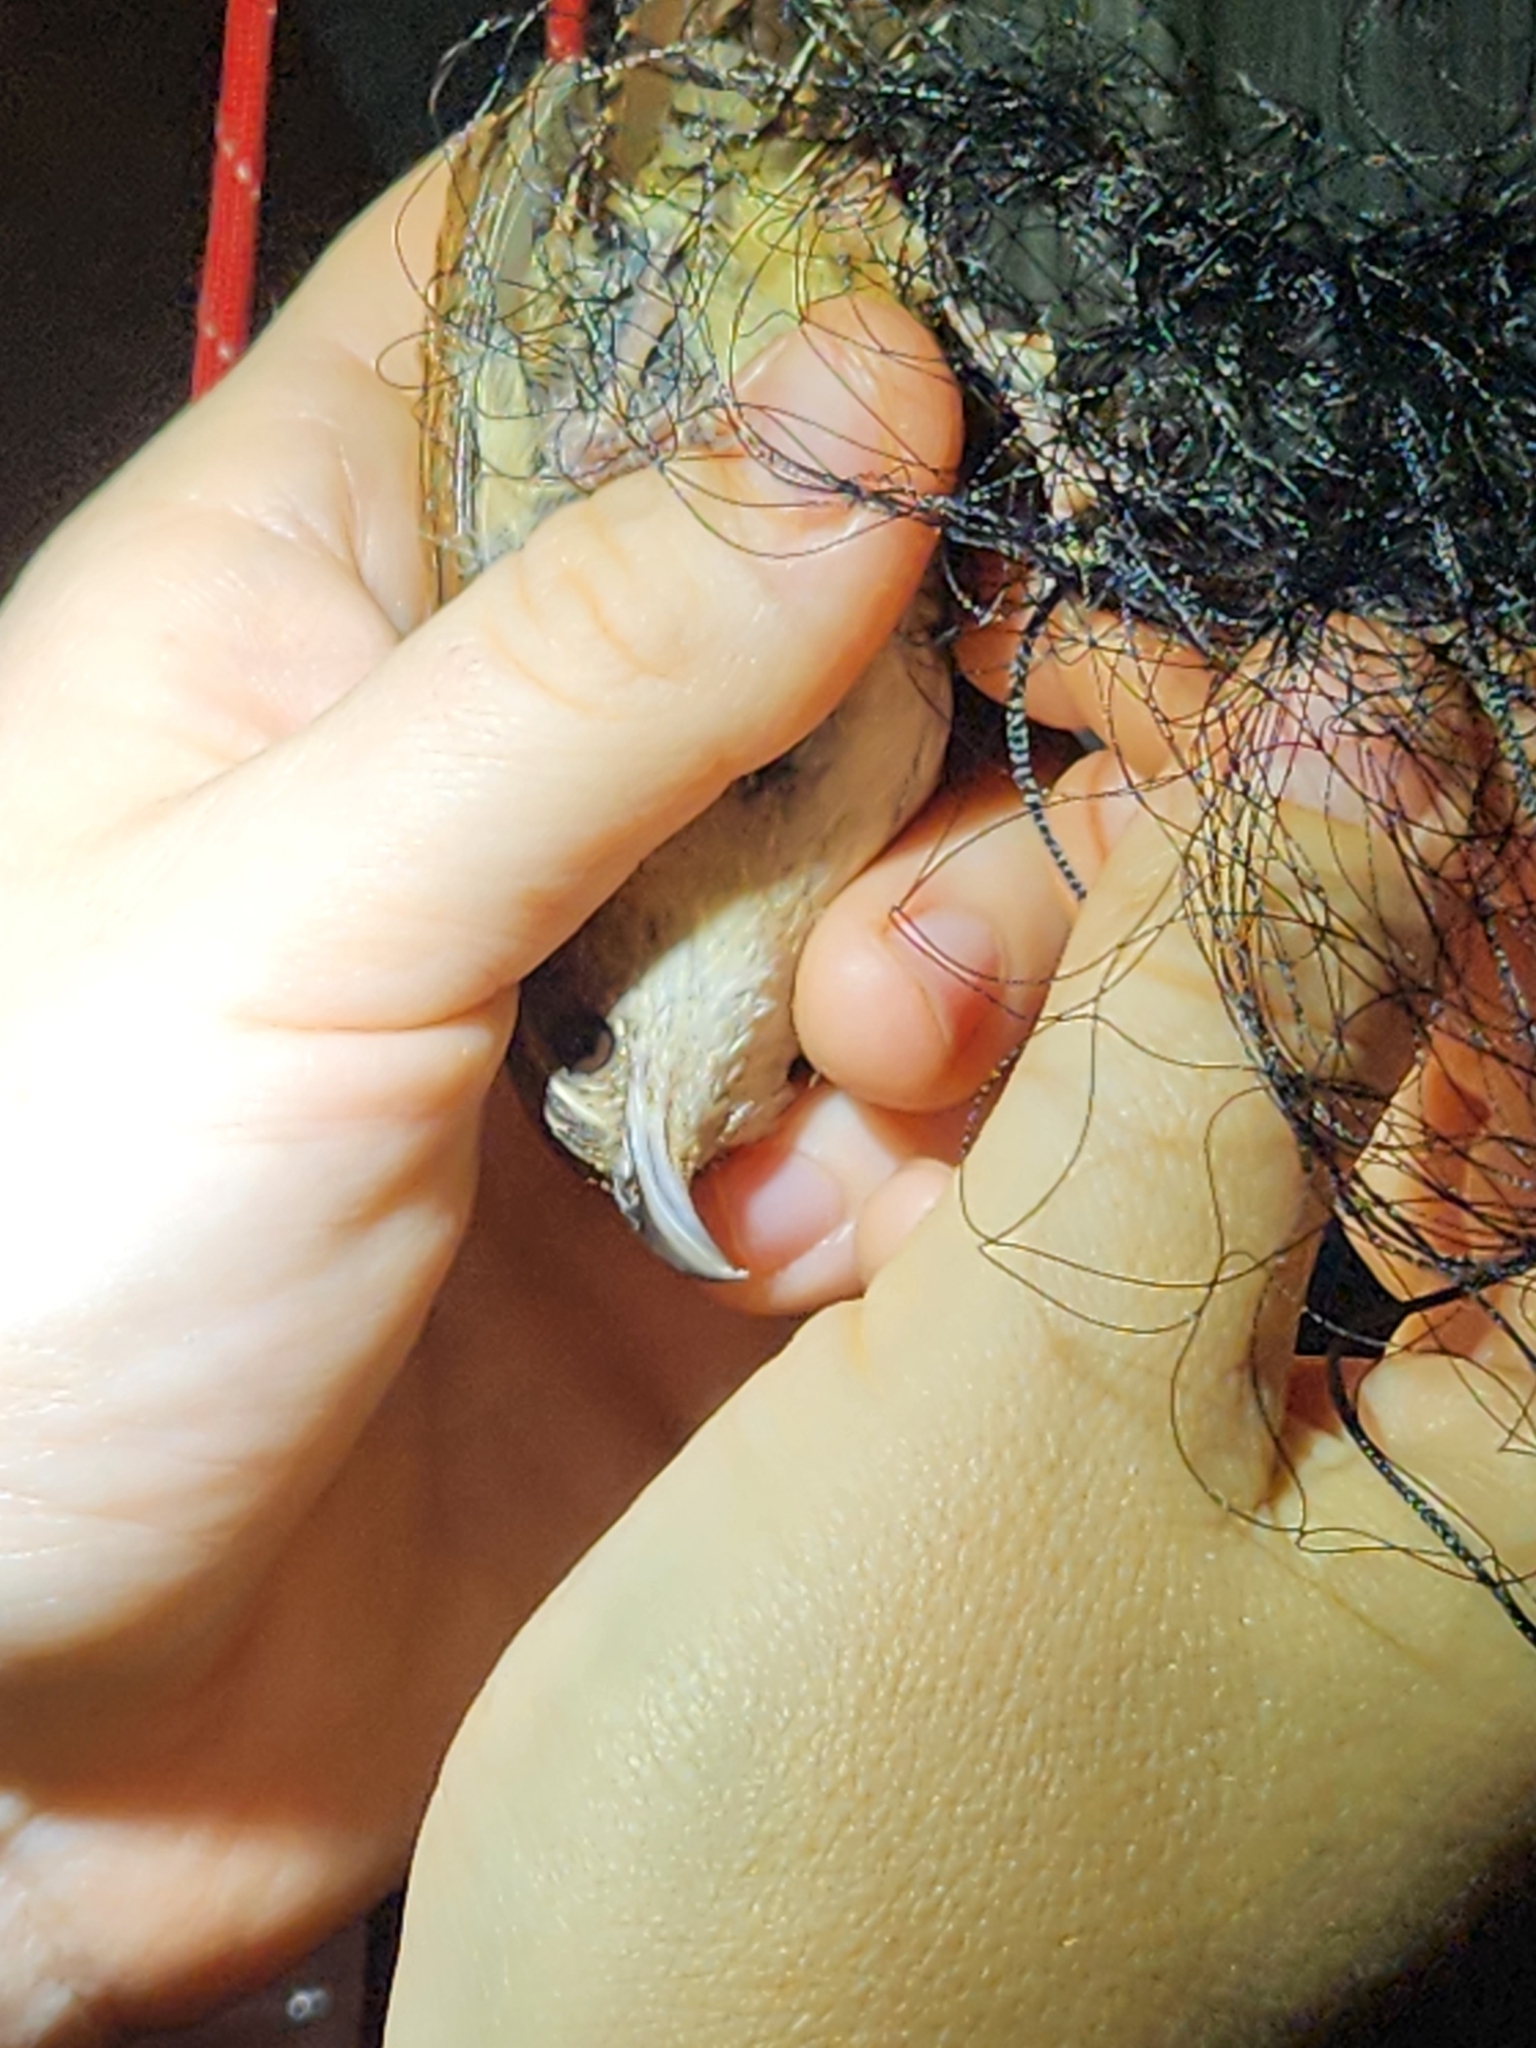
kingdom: Animalia
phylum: Chordata
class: Aves
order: Passeriformes
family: Troglodytidae
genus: Thryothorus
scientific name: Thryothorus ludovicianus
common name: Carolina wren
